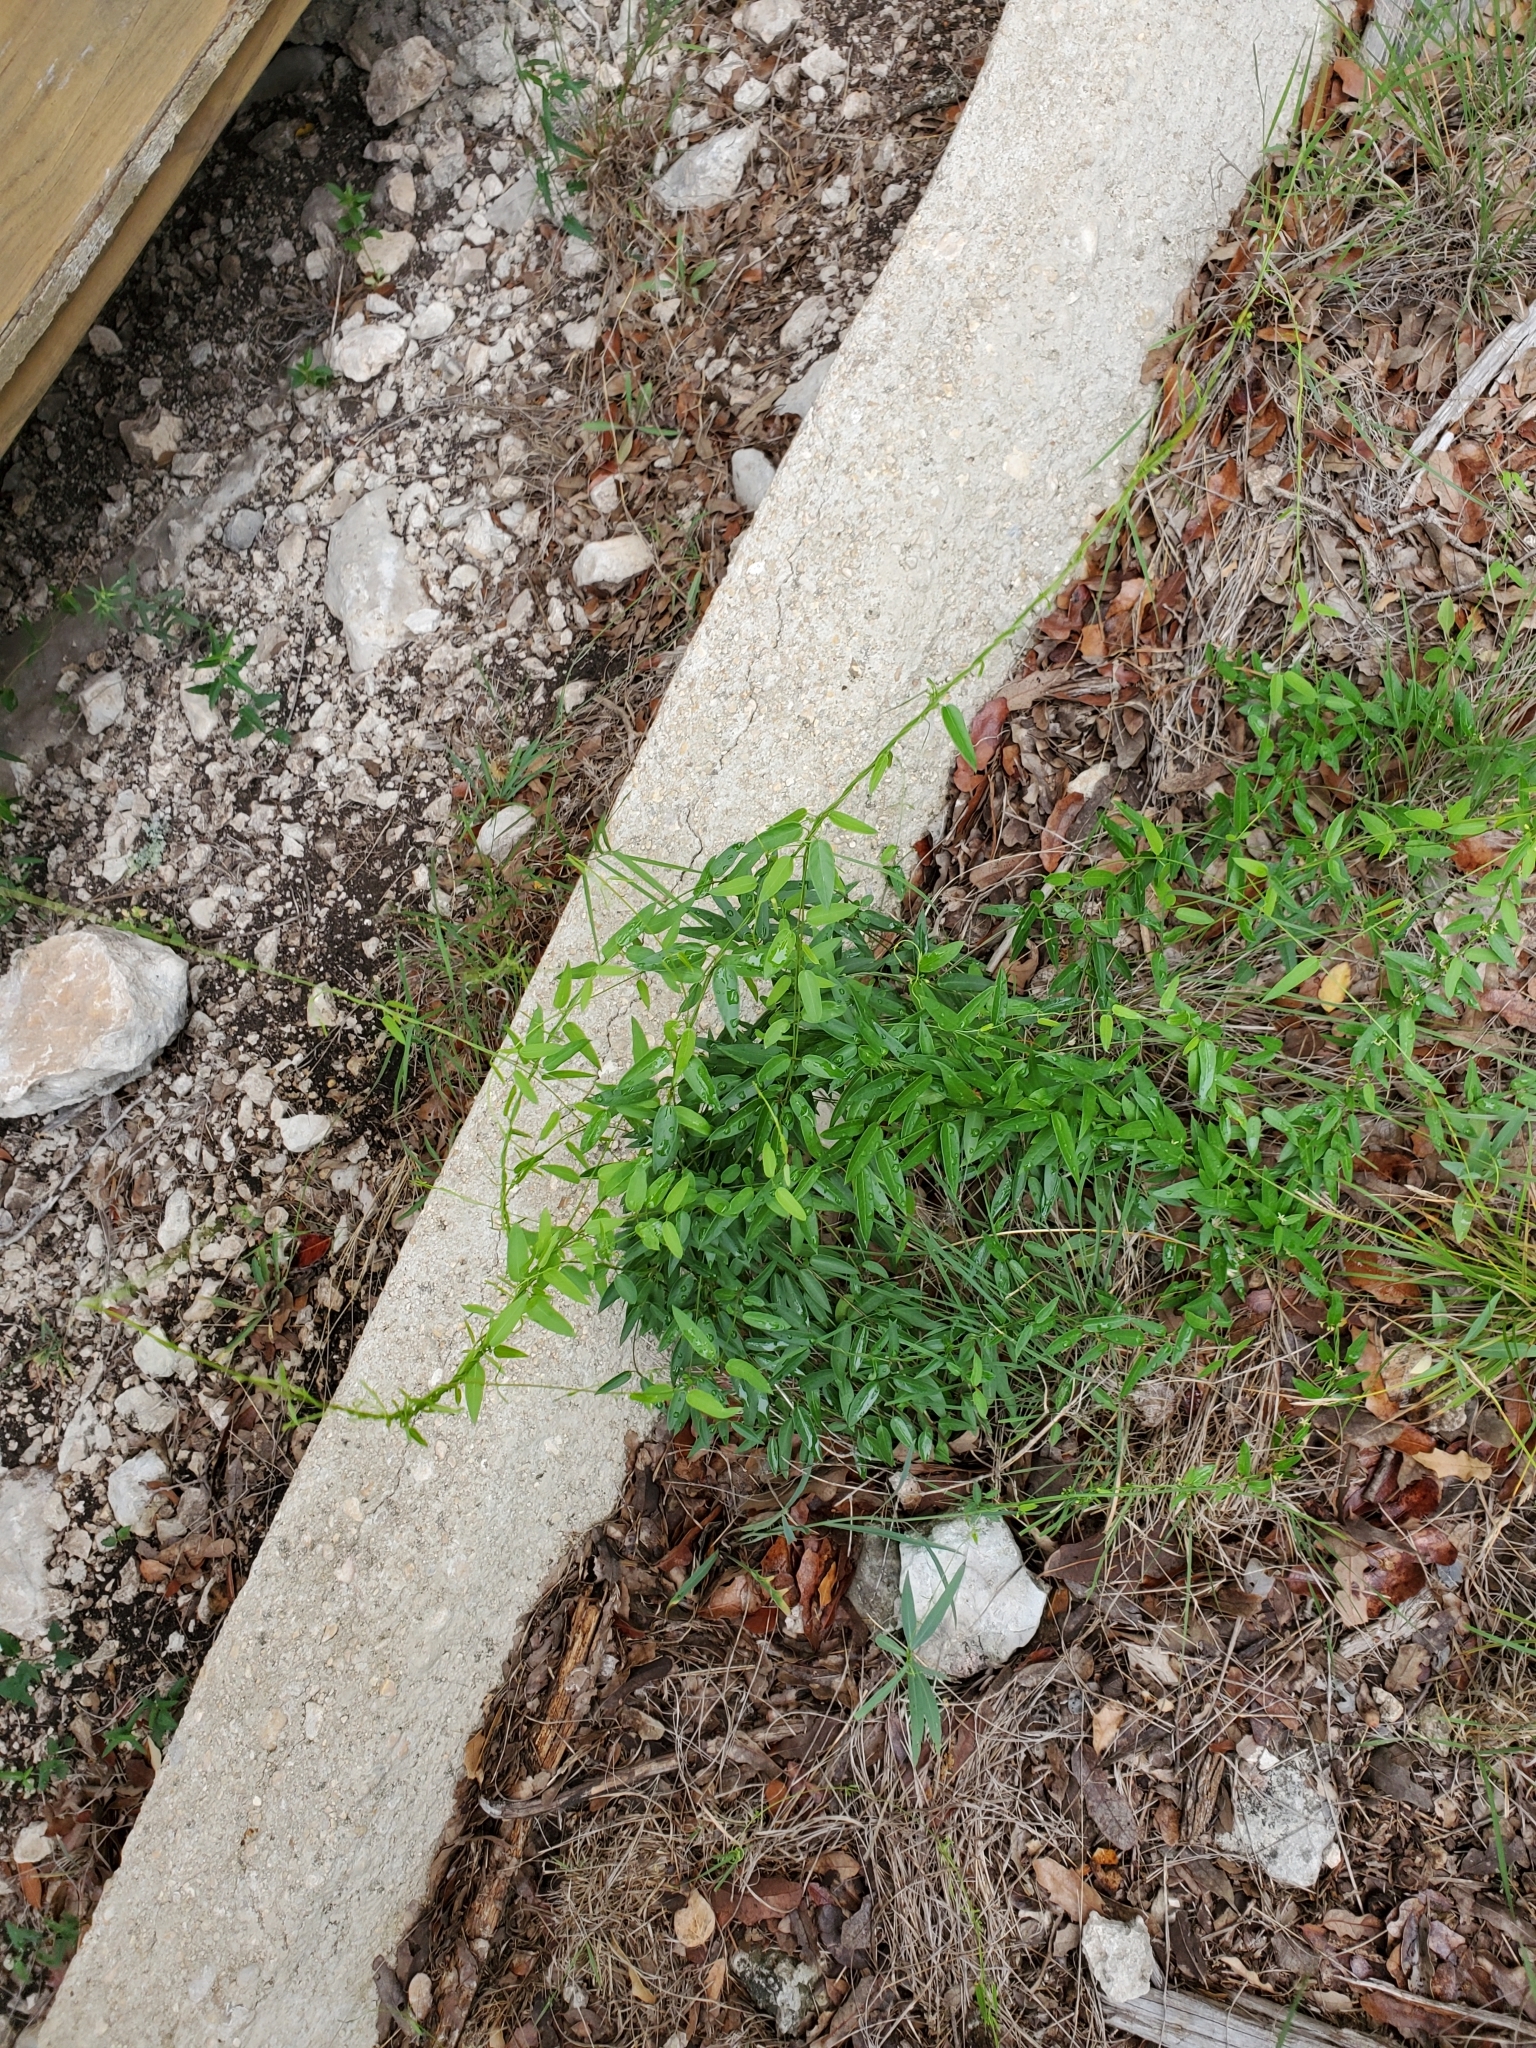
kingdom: Plantae
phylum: Tracheophyta
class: Magnoliopsida
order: Gentianales
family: Apocynaceae
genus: Metastelma
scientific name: Metastelma palmeri
